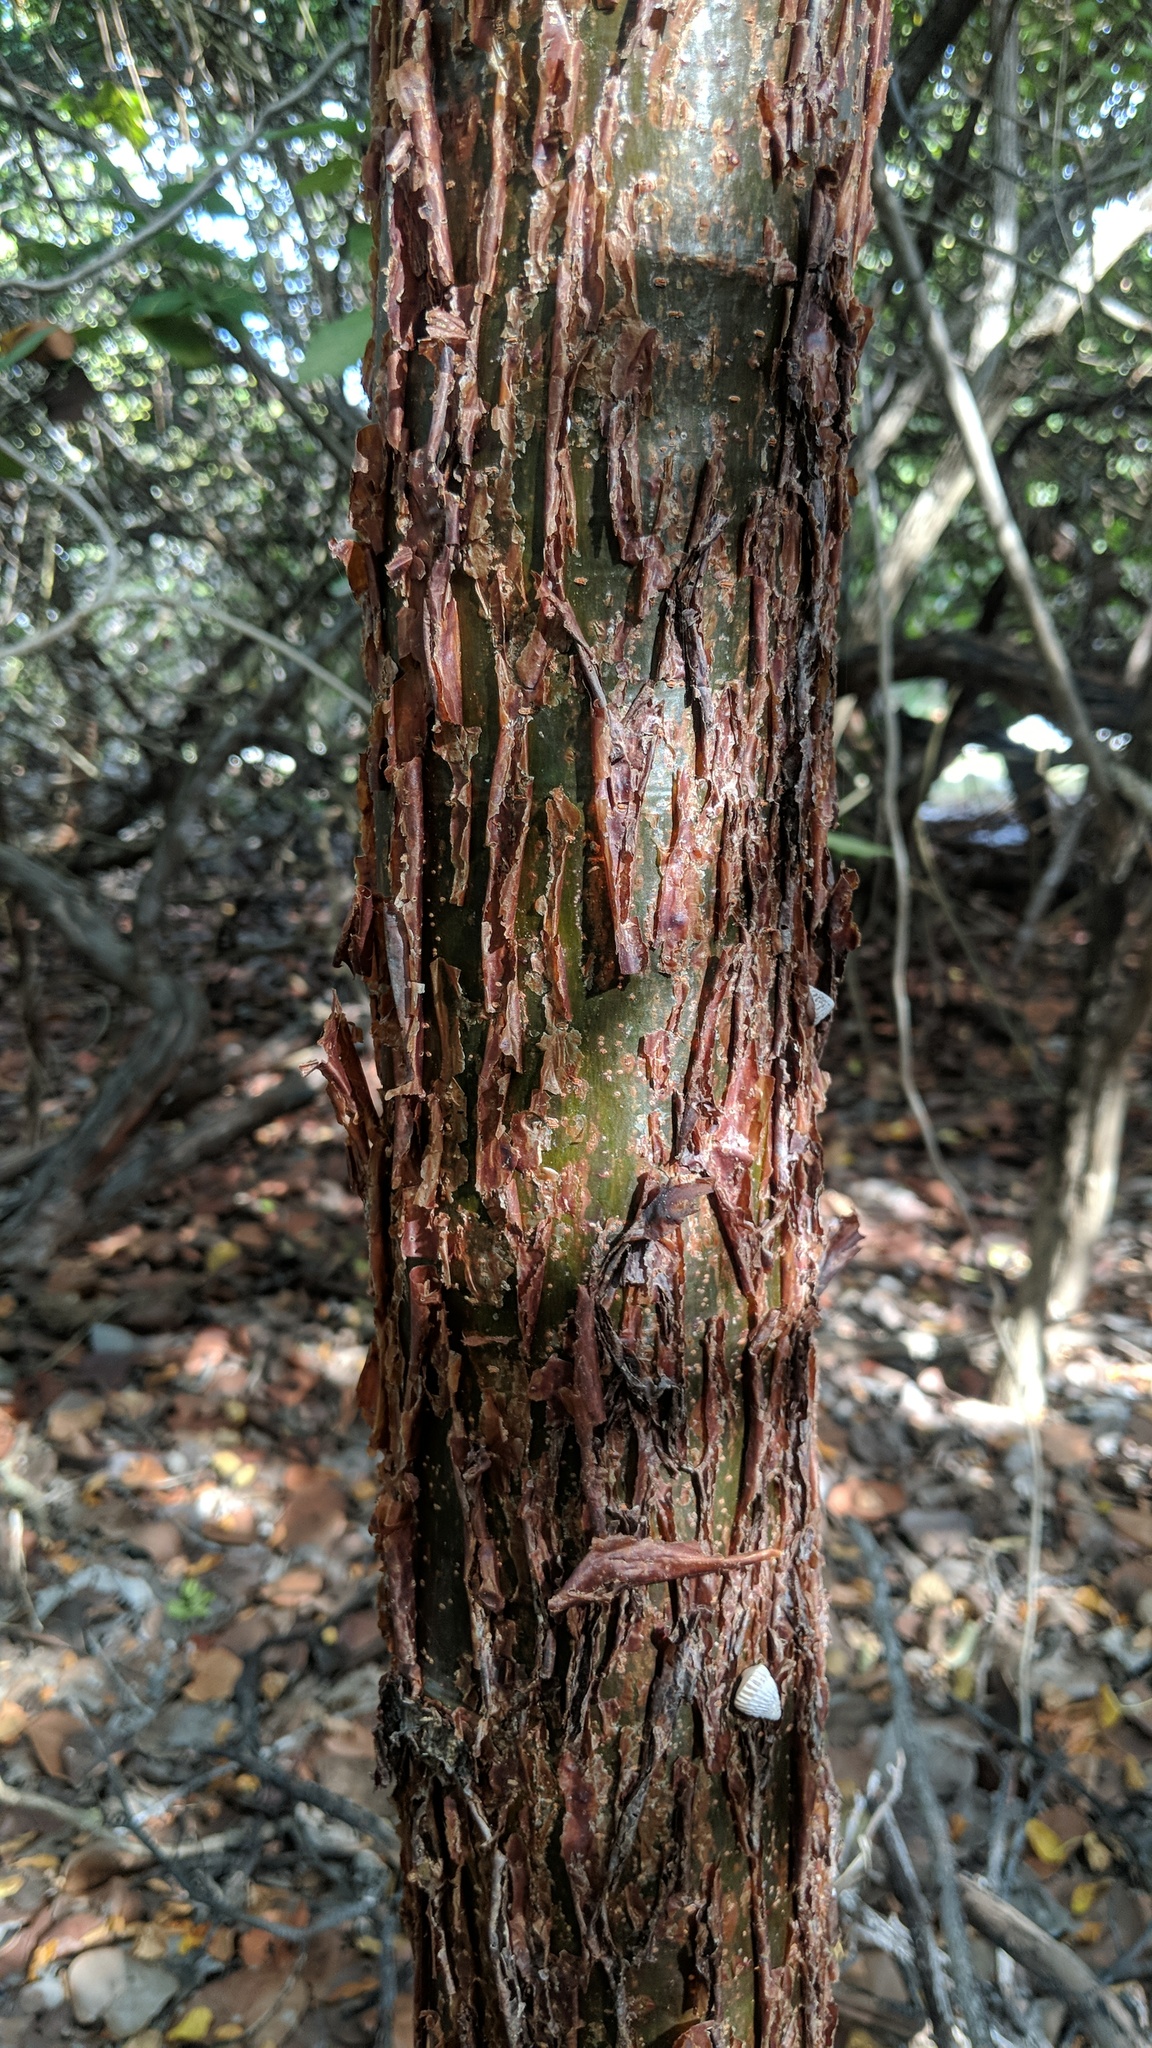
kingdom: Plantae
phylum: Tracheophyta
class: Magnoliopsida
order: Sapindales
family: Burseraceae
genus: Bursera
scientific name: Bursera simaruba
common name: Turpentine tree
